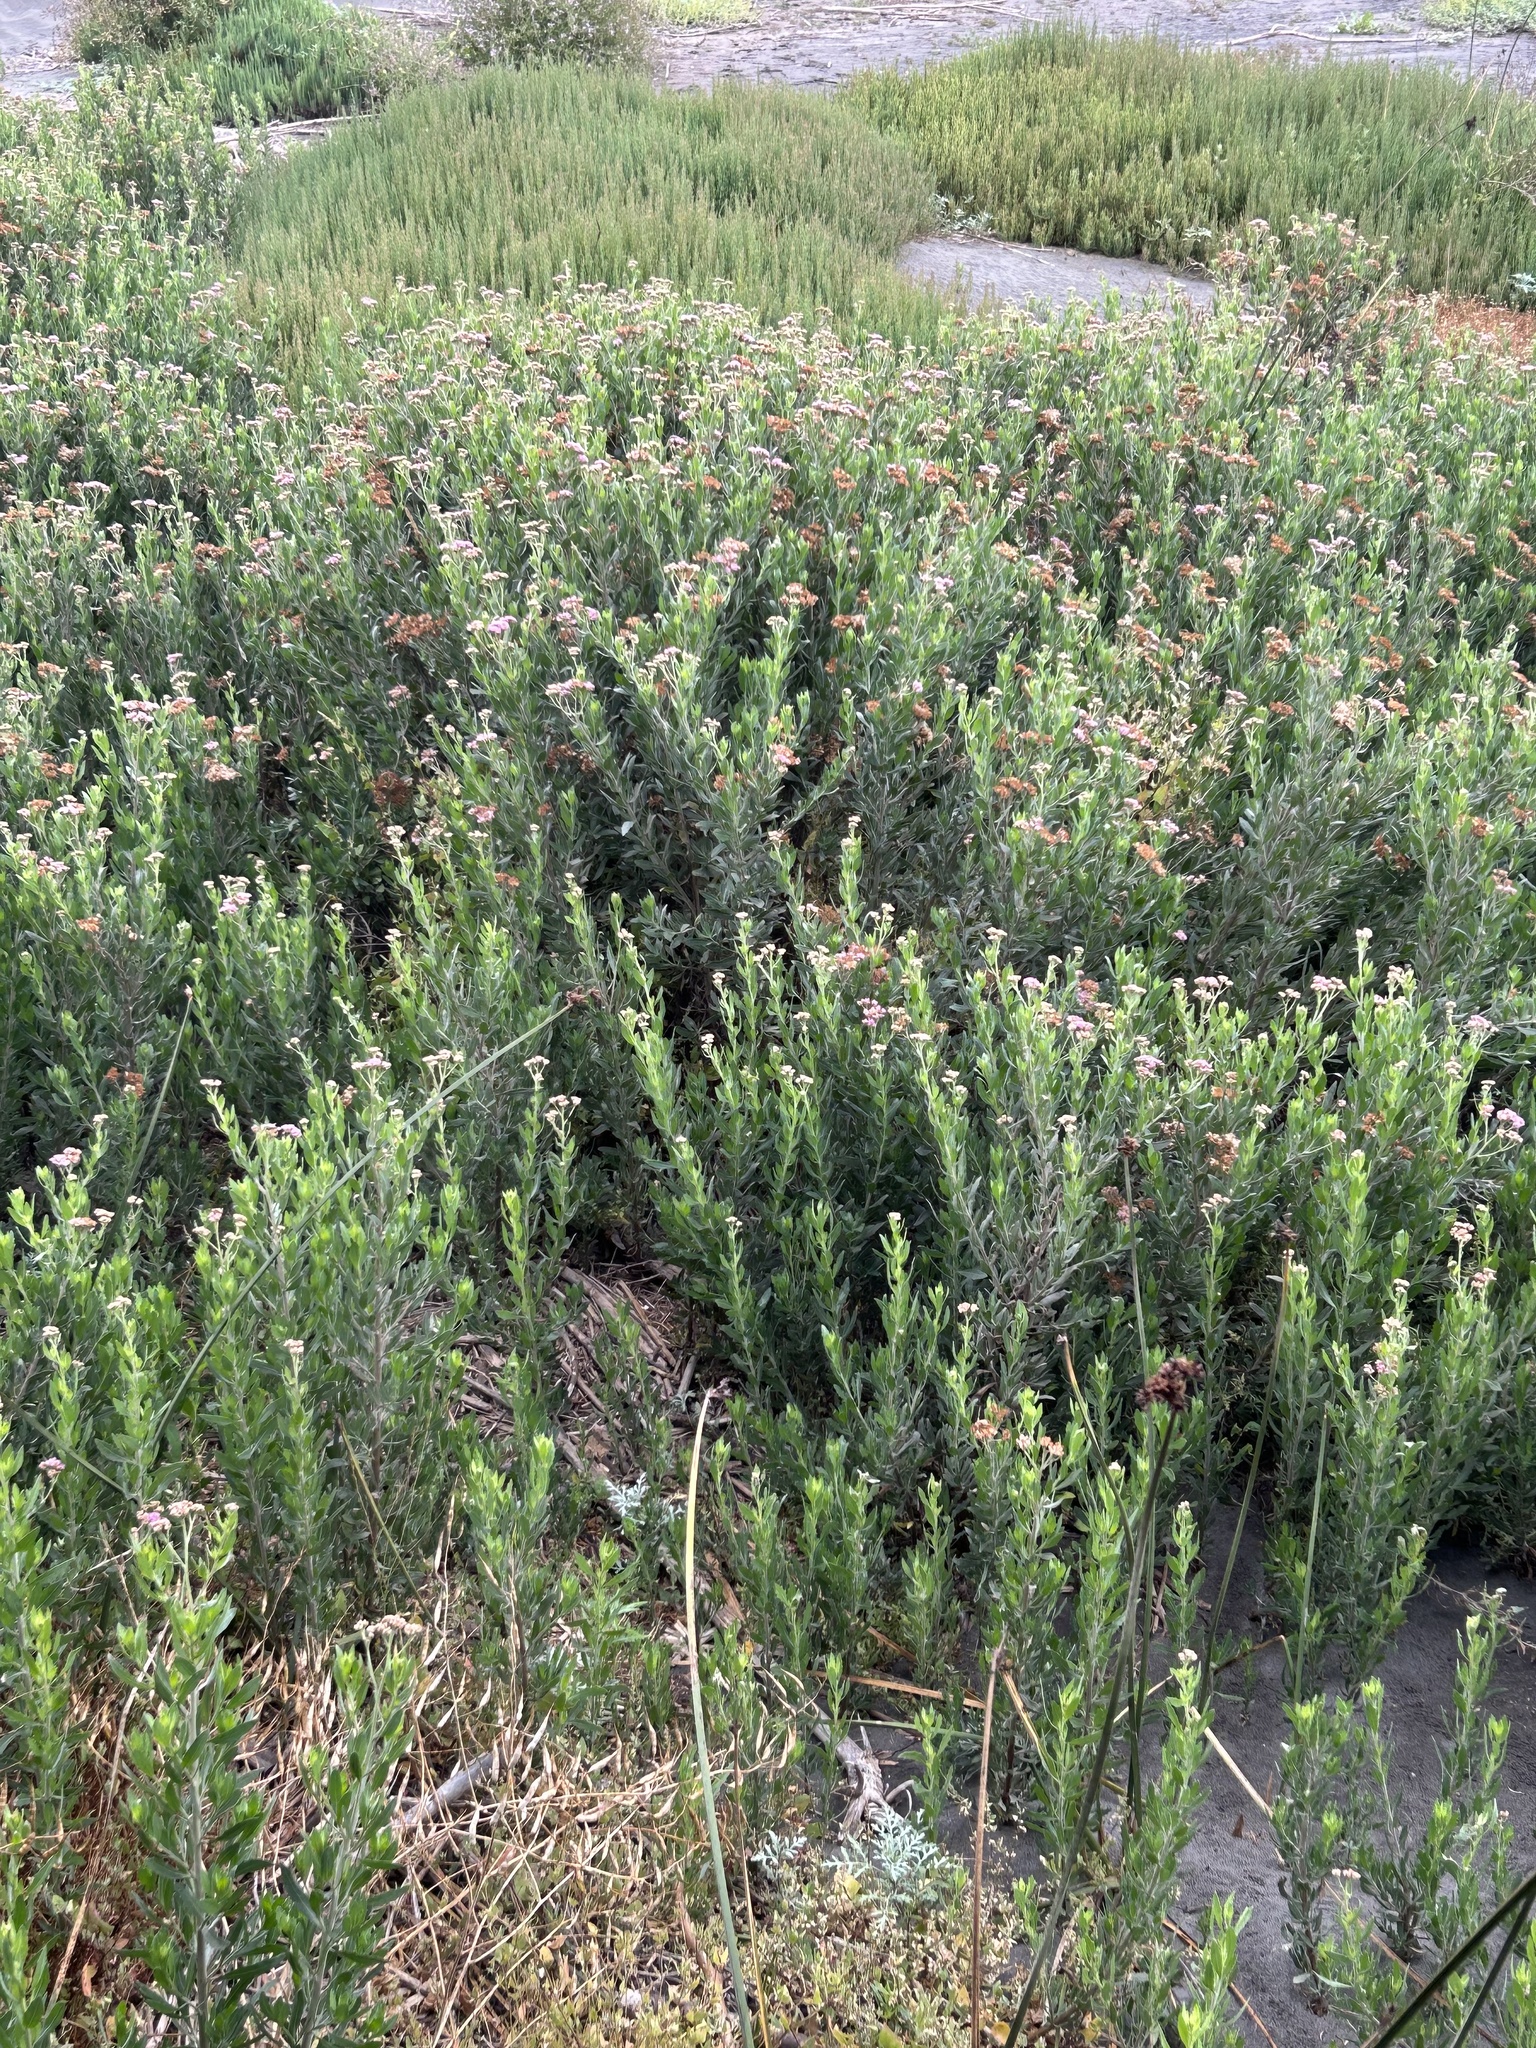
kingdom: Plantae
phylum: Tracheophyta
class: Magnoliopsida
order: Asterales
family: Asteraceae
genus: Tessaria
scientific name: Tessaria absinthioides
